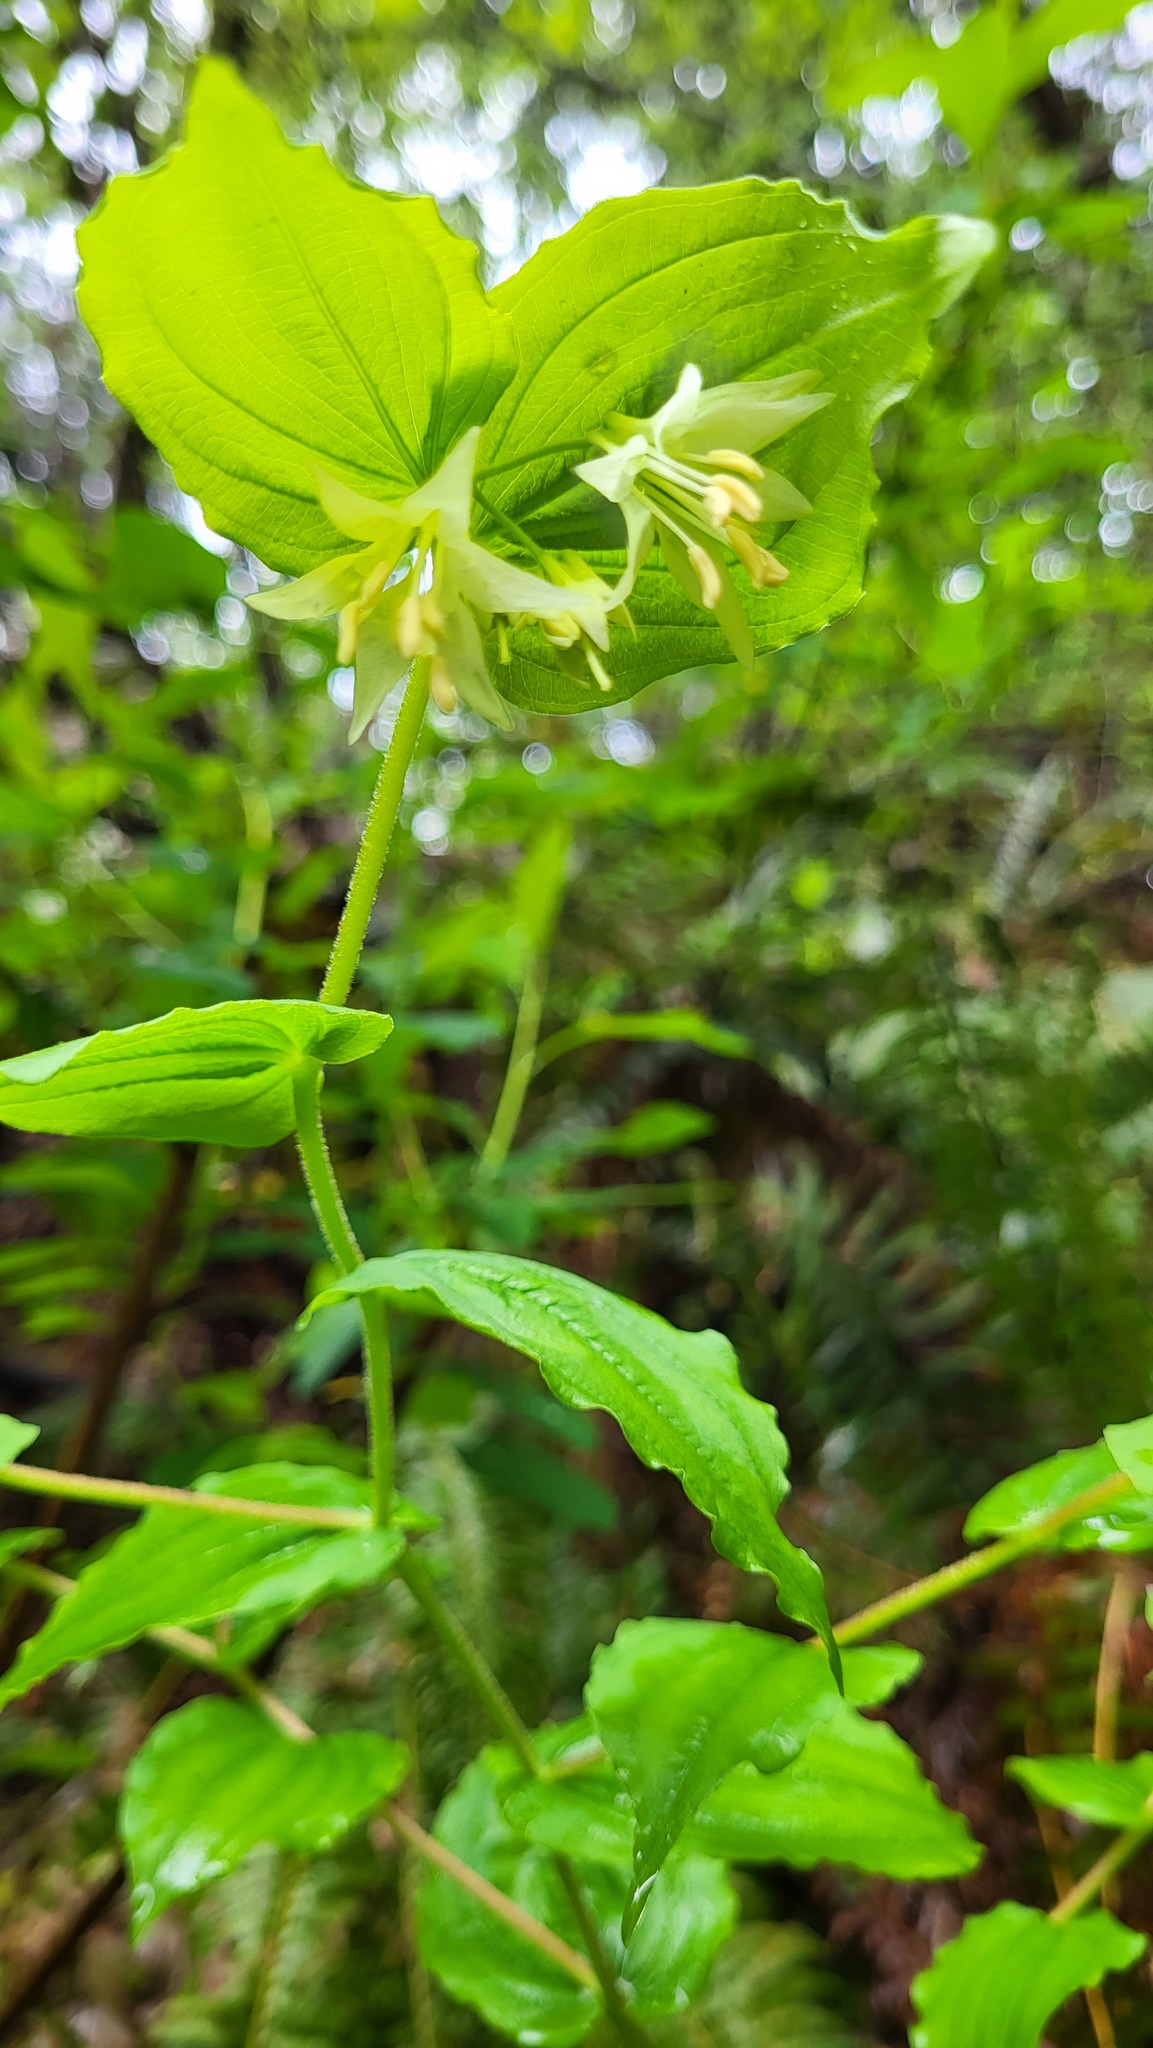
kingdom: Plantae
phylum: Tracheophyta
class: Liliopsida
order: Liliales
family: Liliaceae
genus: Prosartes
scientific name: Prosartes hookeri
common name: Fairy-bells
